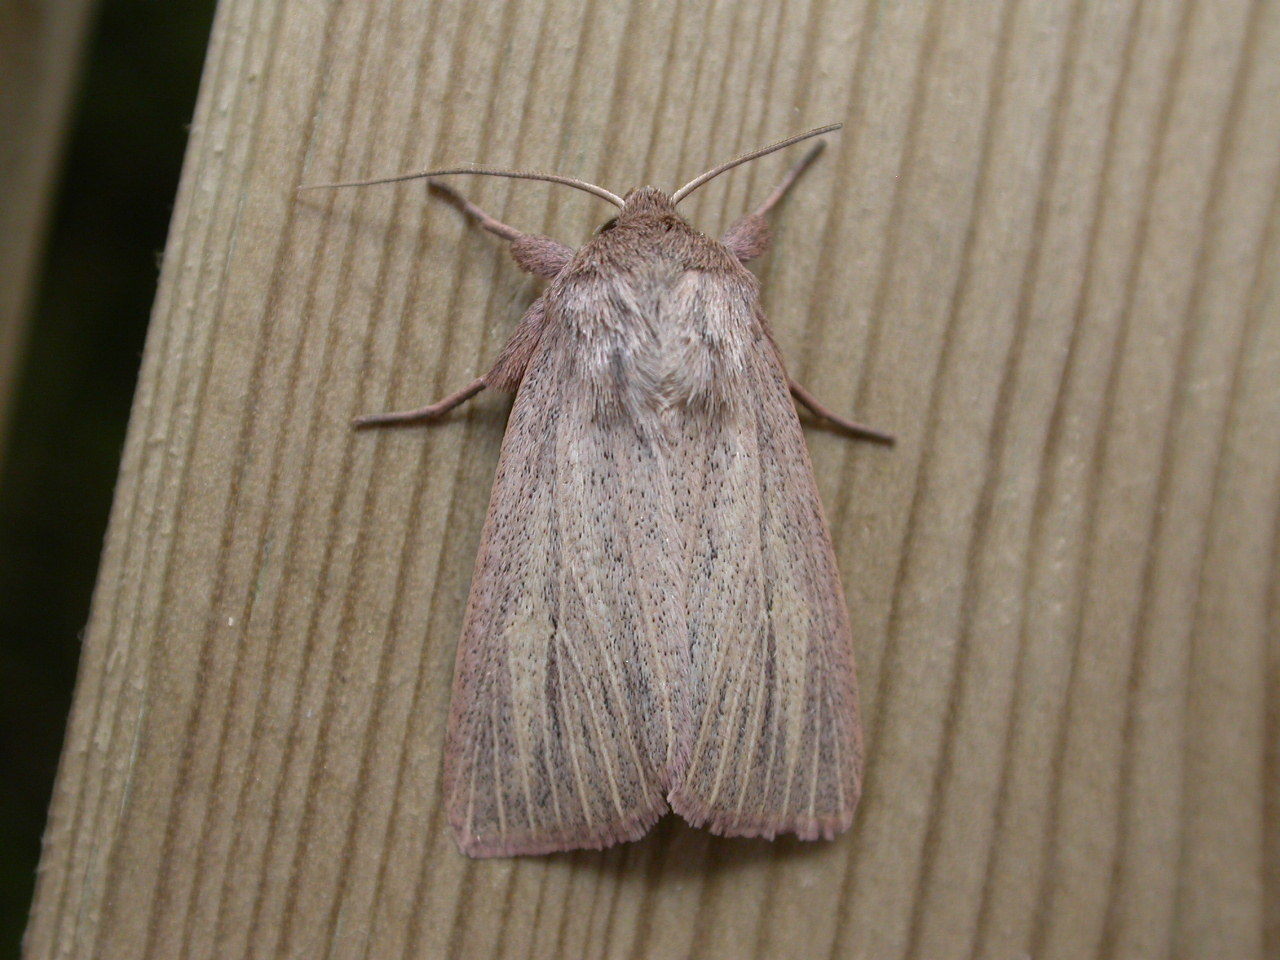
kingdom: Animalia
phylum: Arthropoda
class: Insecta
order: Lepidoptera
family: Noctuidae
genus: Mythimna
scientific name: Mythimna pudorina
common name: Striped wainscot
